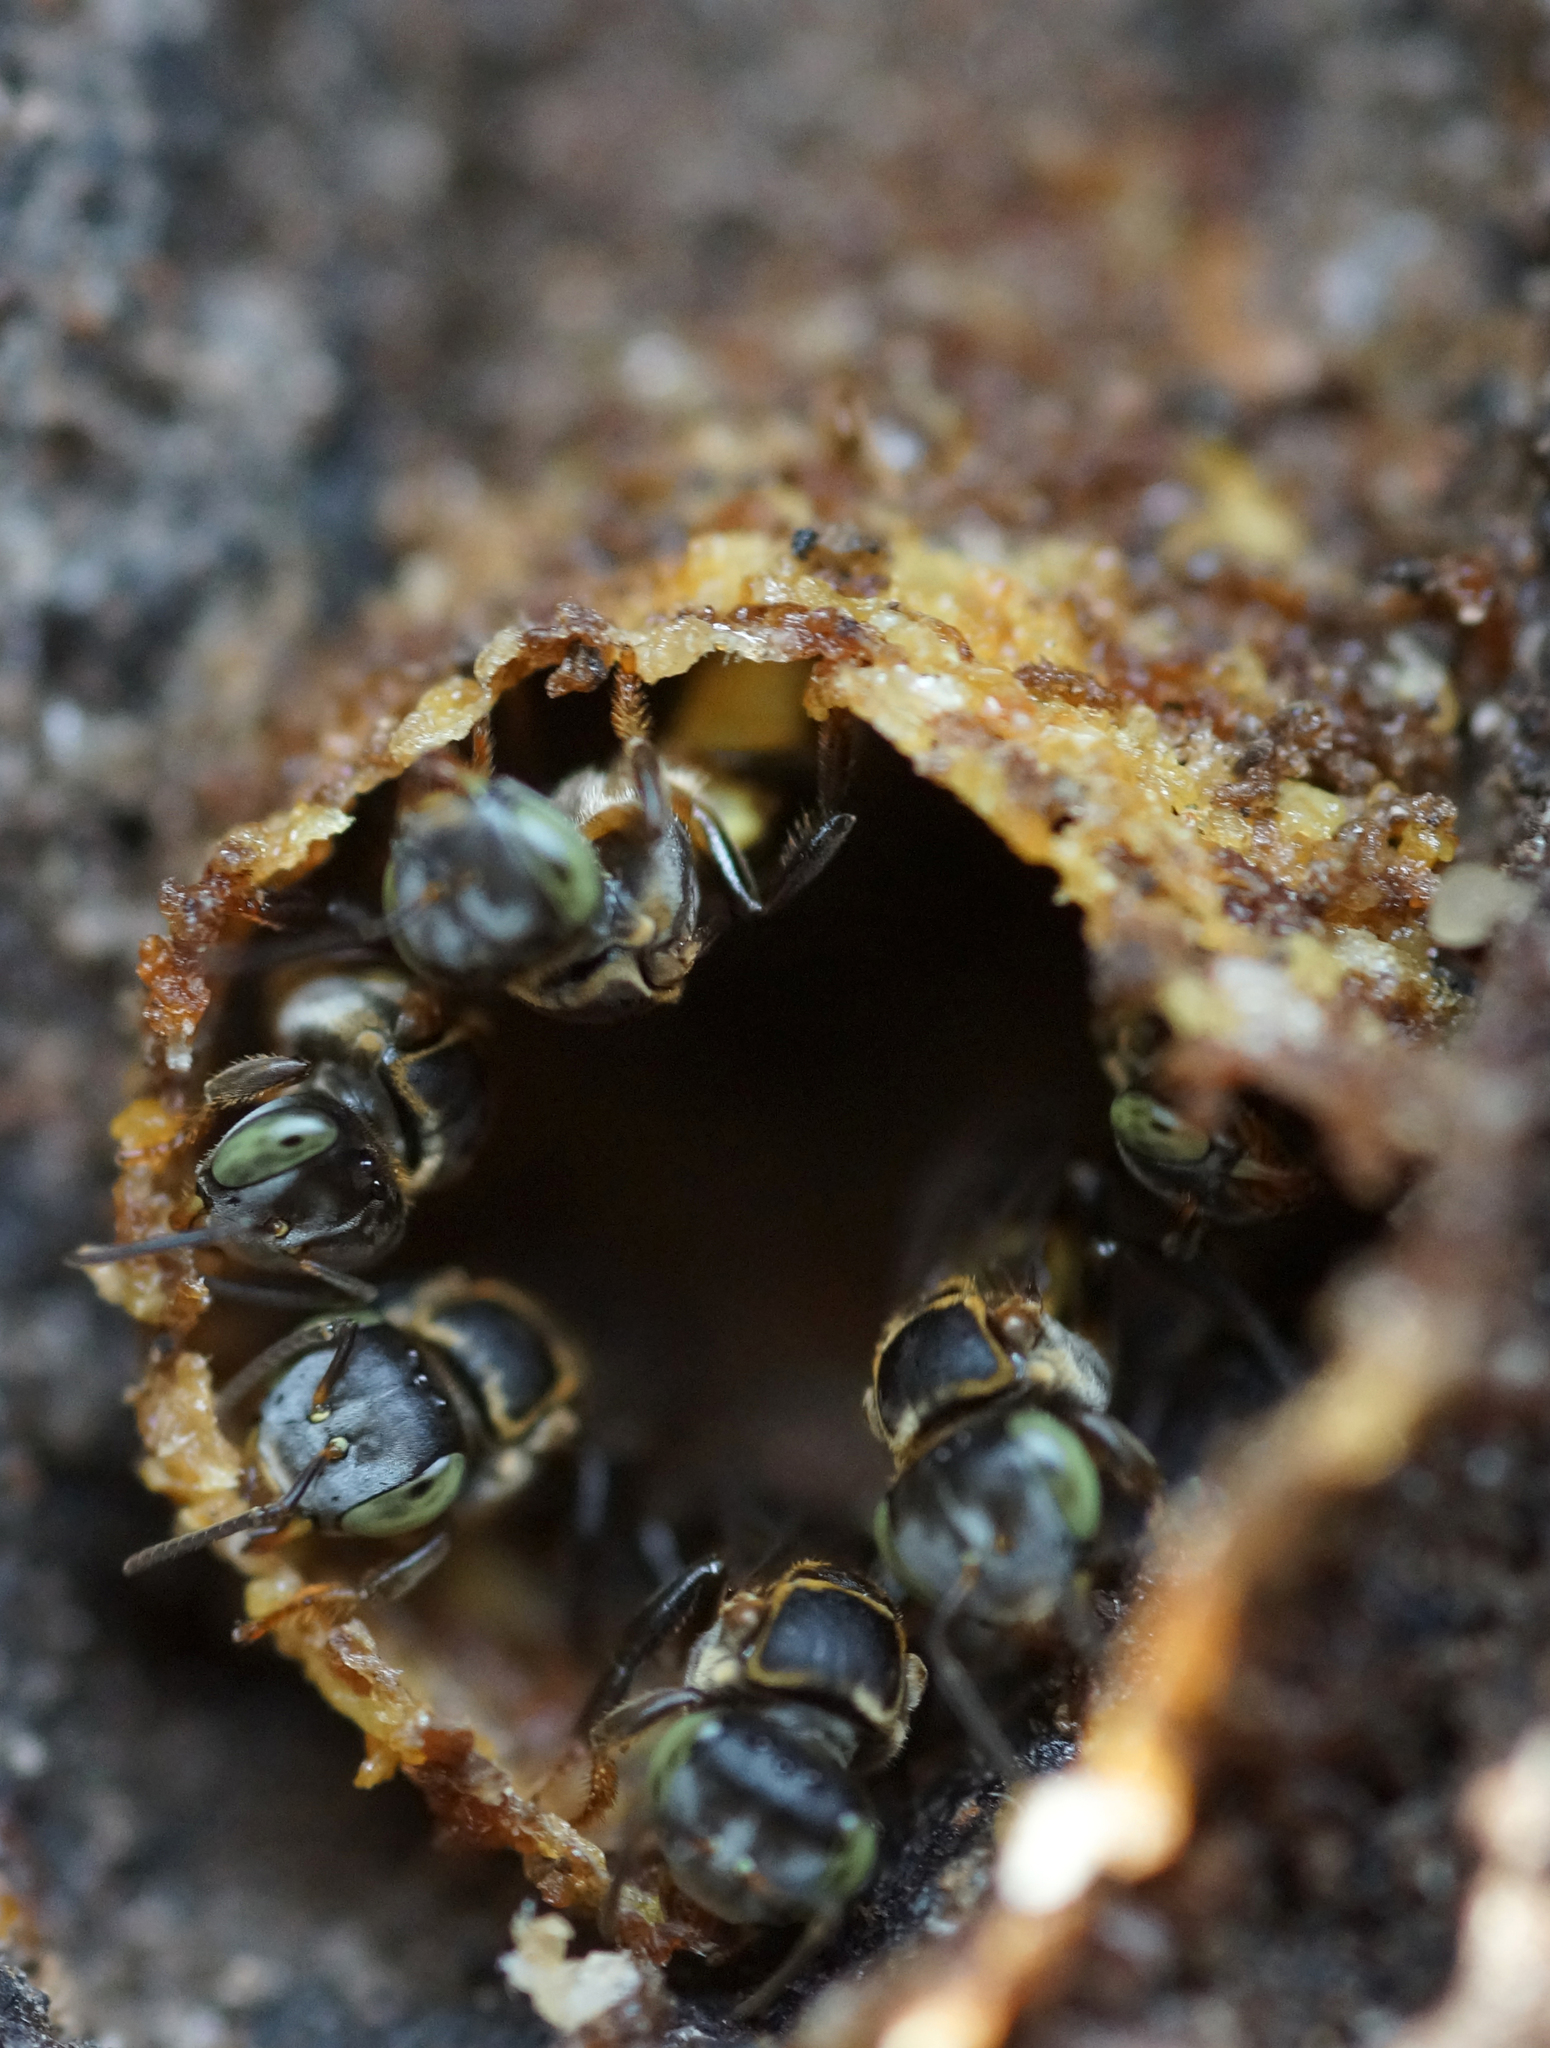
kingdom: Animalia
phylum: Arthropoda
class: Insecta
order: Hymenoptera
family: Apidae
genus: Lepidotrigona
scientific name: Lepidotrigona terminata
